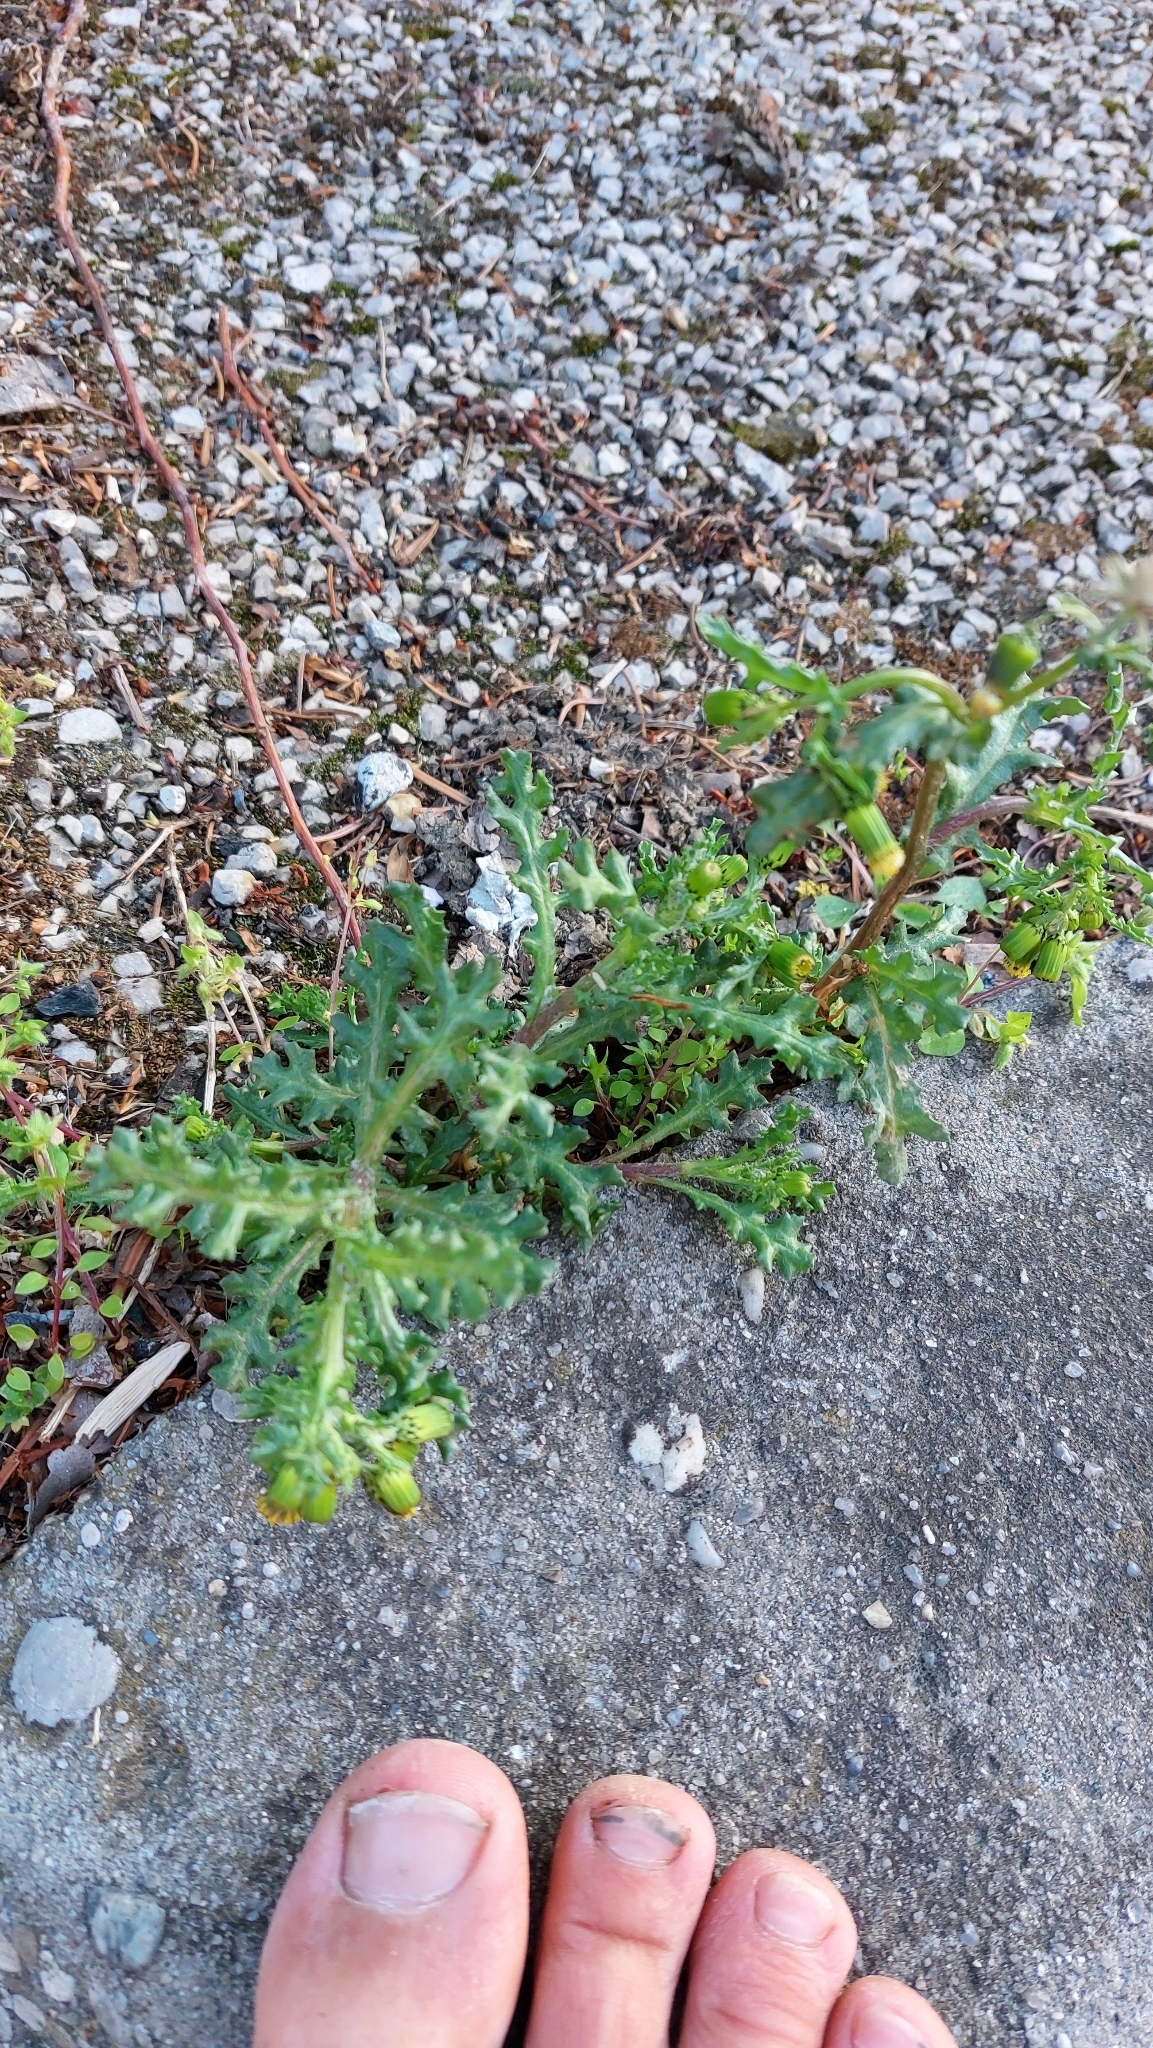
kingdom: Plantae
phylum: Tracheophyta
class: Magnoliopsida
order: Asterales
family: Asteraceae
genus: Senecio
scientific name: Senecio vulgaris
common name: Old-man-in-the-spring
